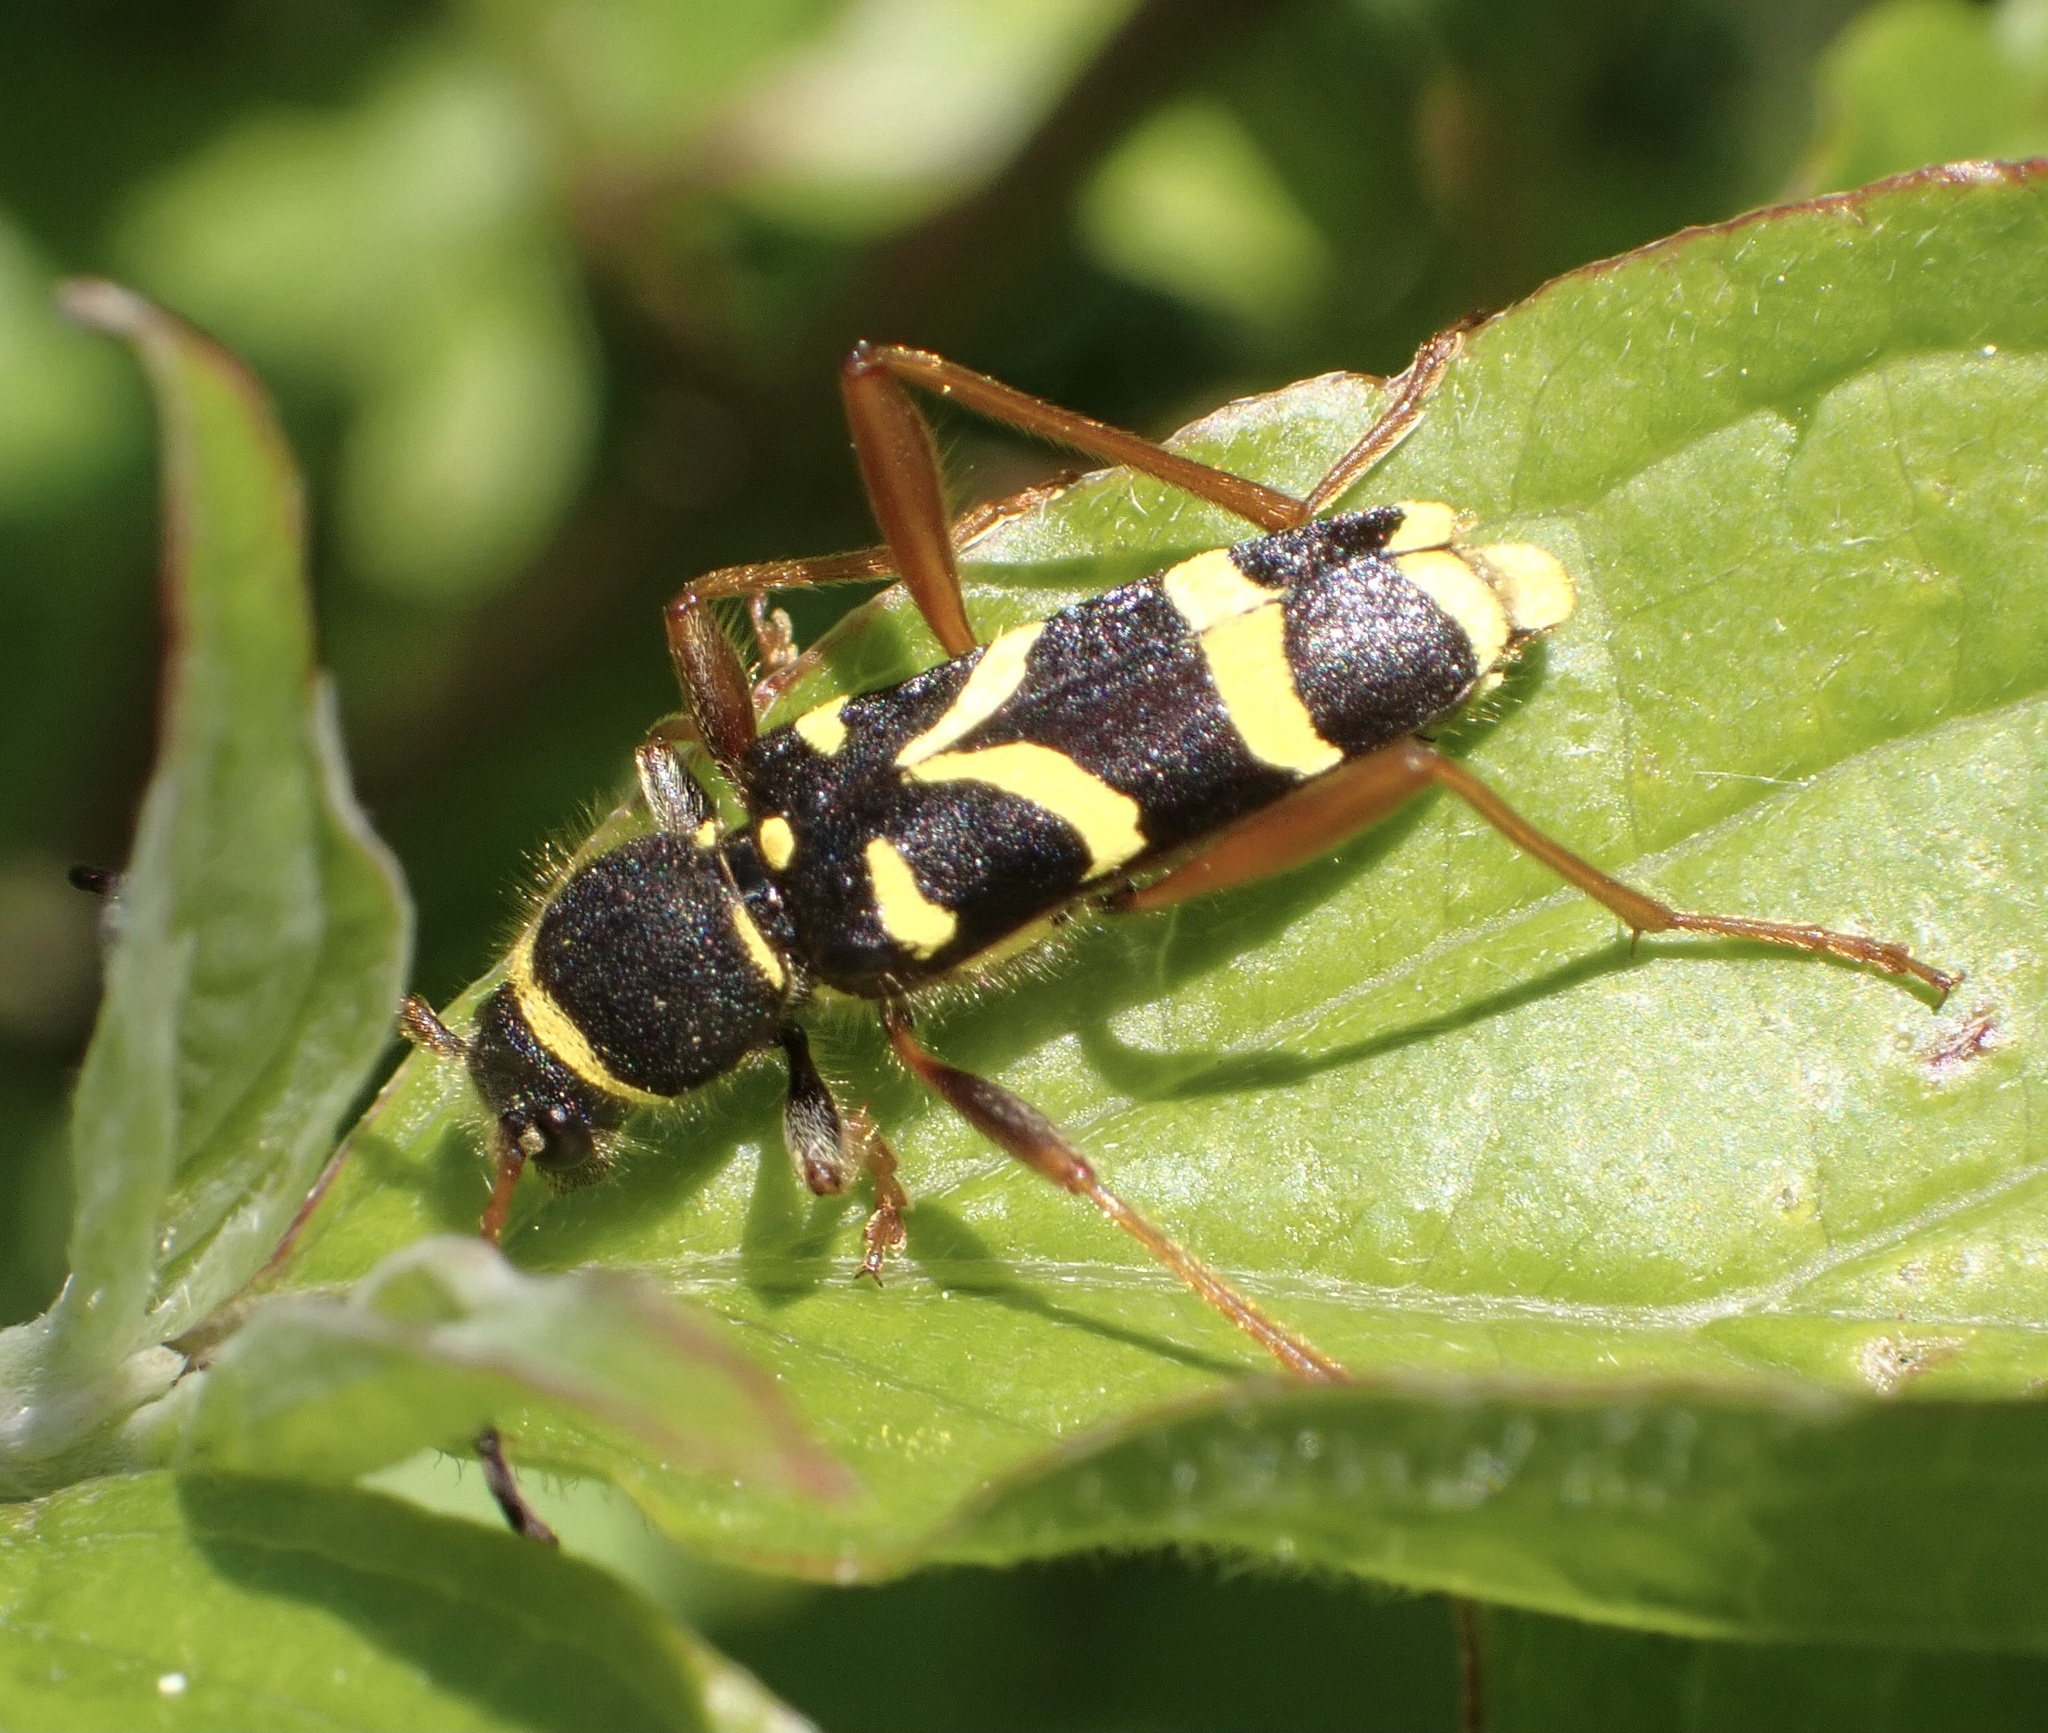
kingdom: Animalia
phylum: Arthropoda
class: Insecta
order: Coleoptera
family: Cerambycidae
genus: Clytus
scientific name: Clytus arietis
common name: Wasp beetle
